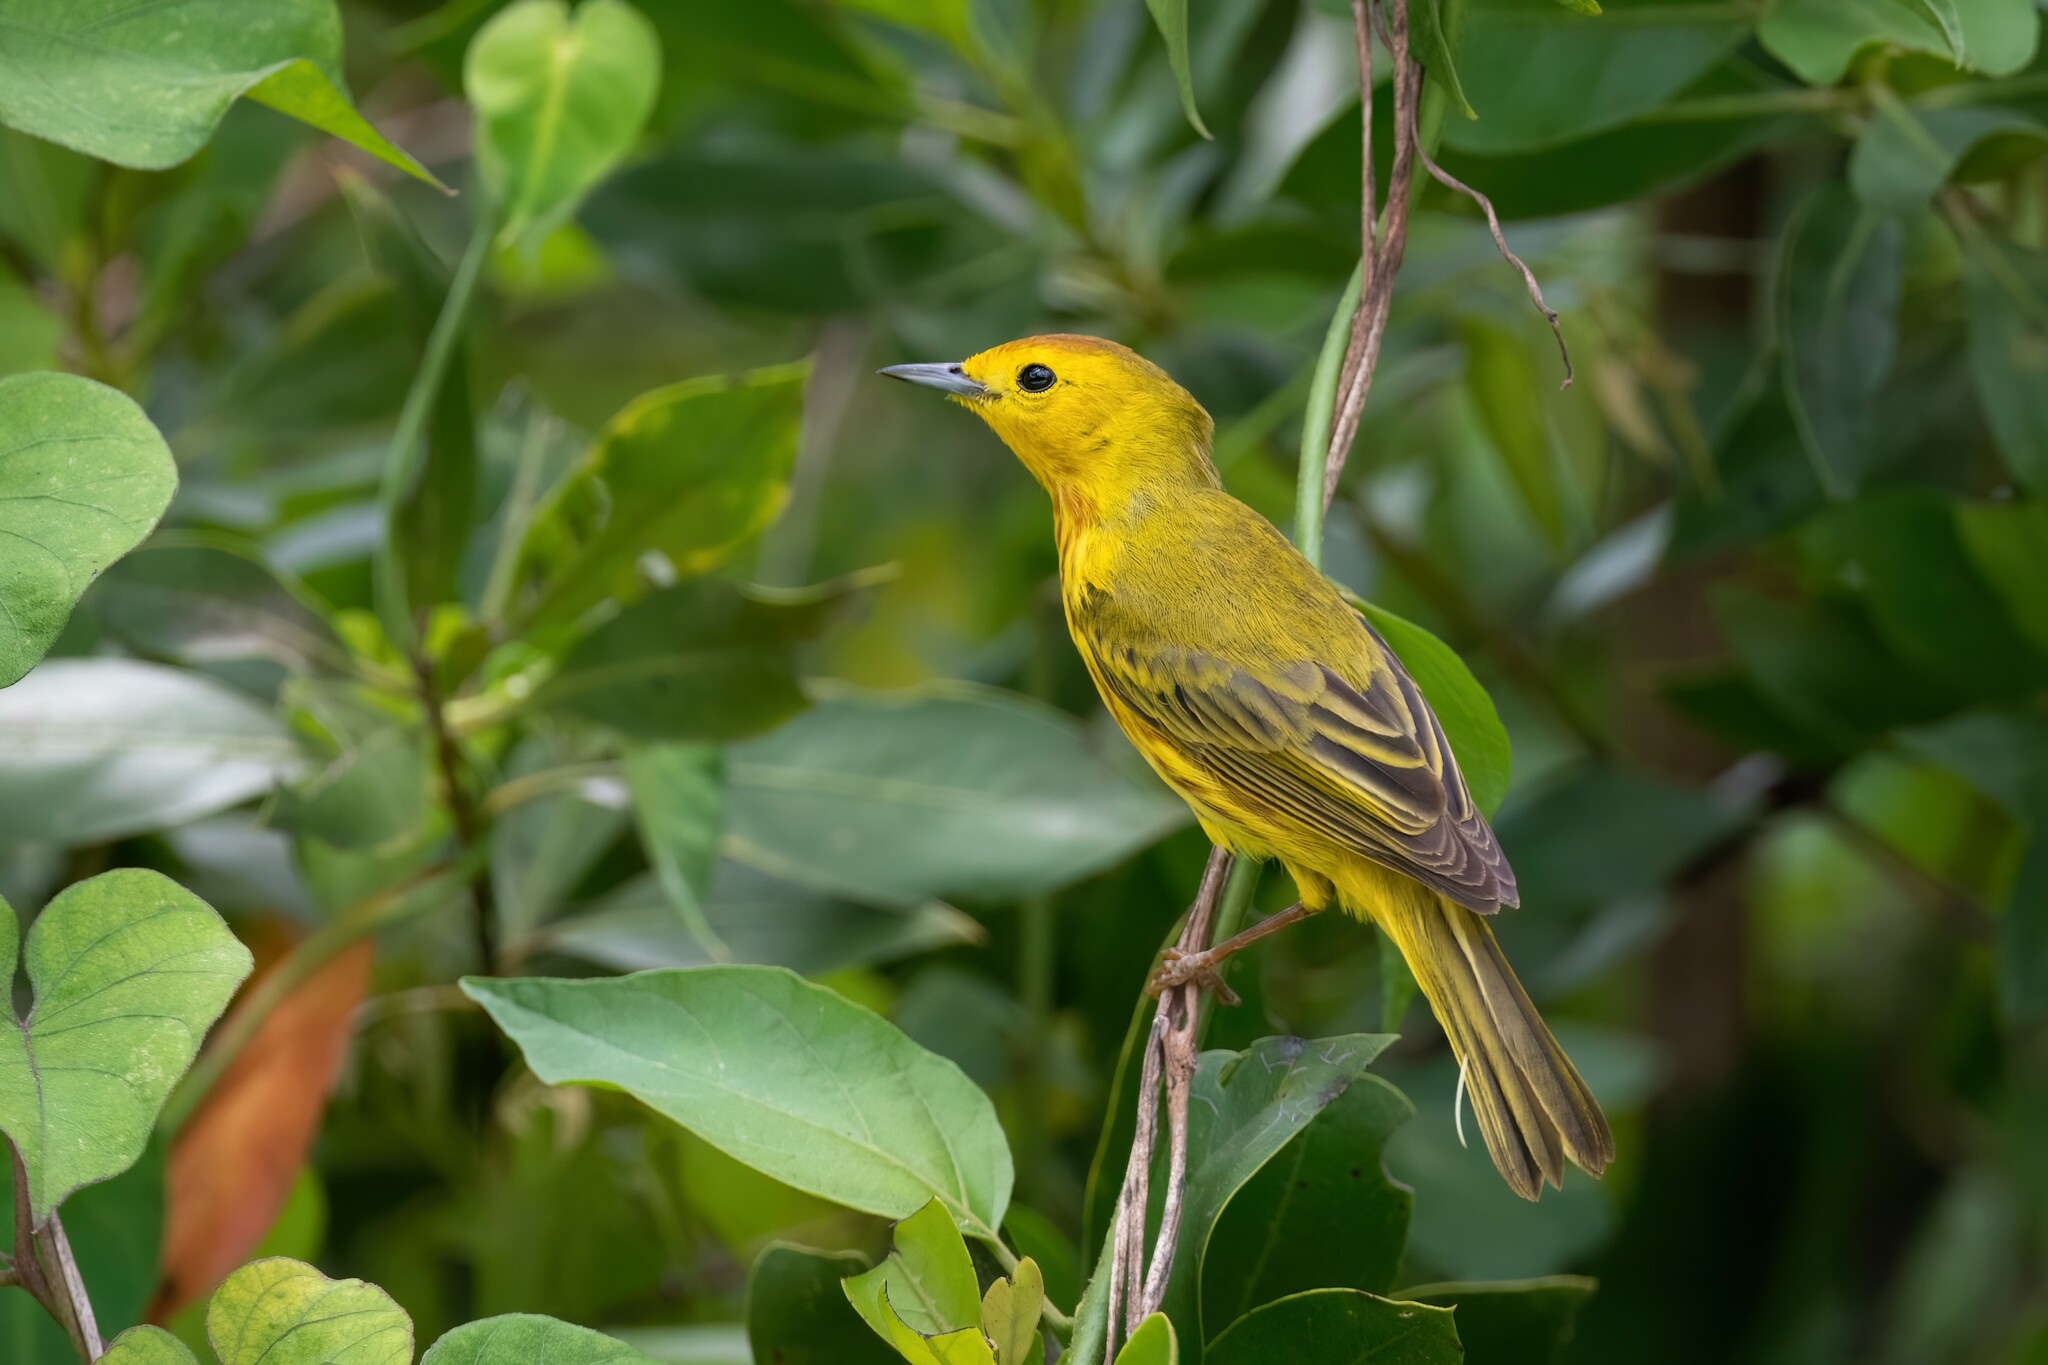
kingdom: Animalia
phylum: Chordata
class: Aves
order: Passeriformes
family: Parulidae
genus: Setophaga
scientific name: Setophaga petechia
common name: Yellow warbler
